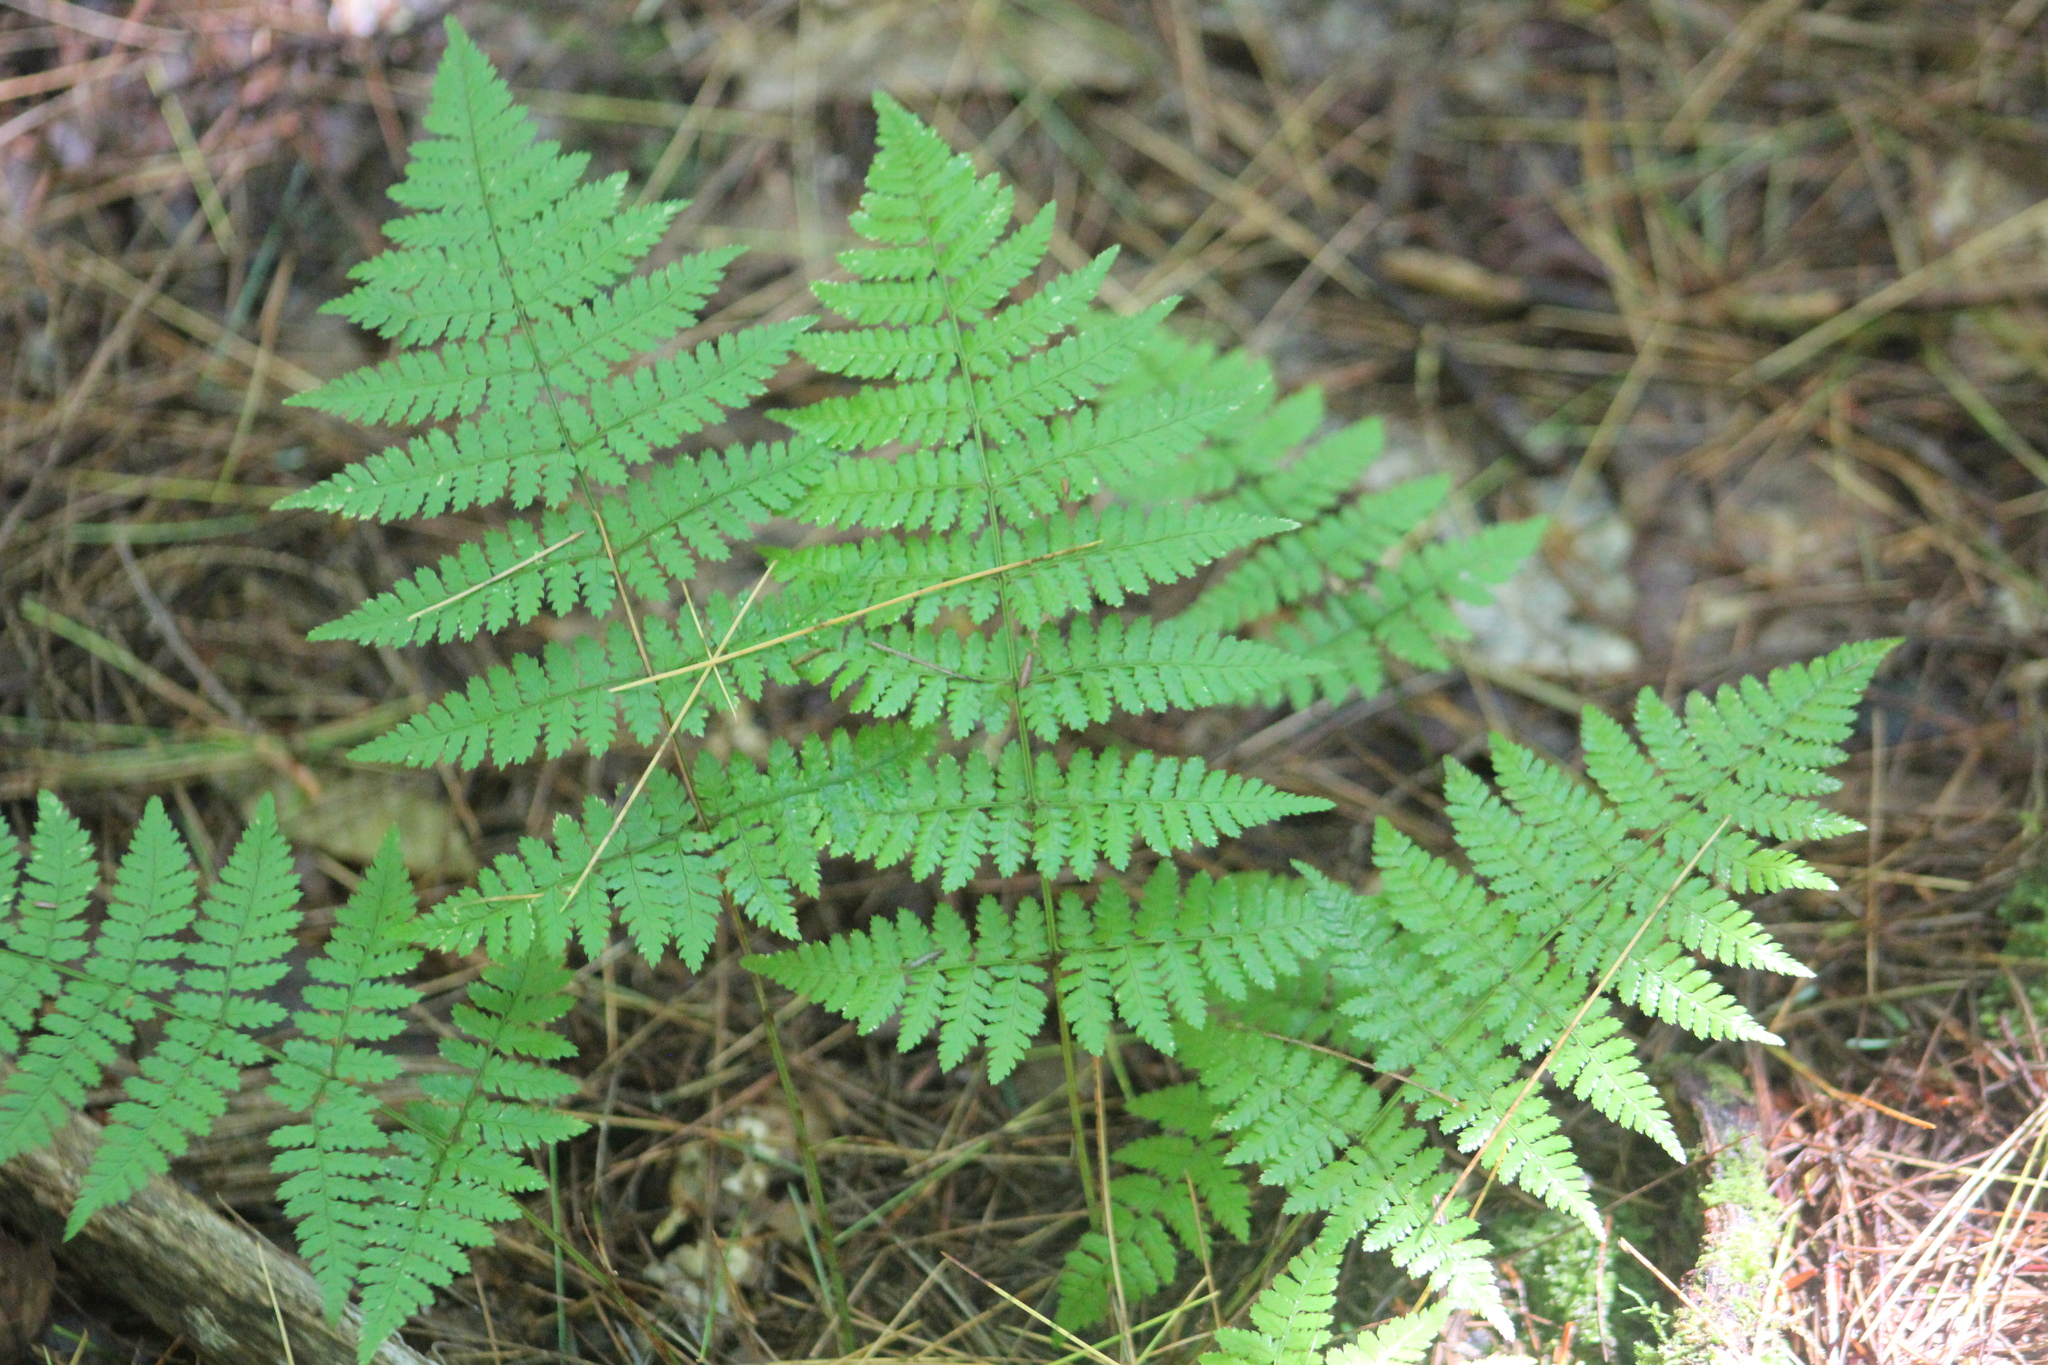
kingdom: Plantae
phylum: Tracheophyta
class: Polypodiopsida
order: Polypodiales
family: Dryopteridaceae
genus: Dryopteris
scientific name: Dryopteris intermedia
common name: Evergreen wood fern
